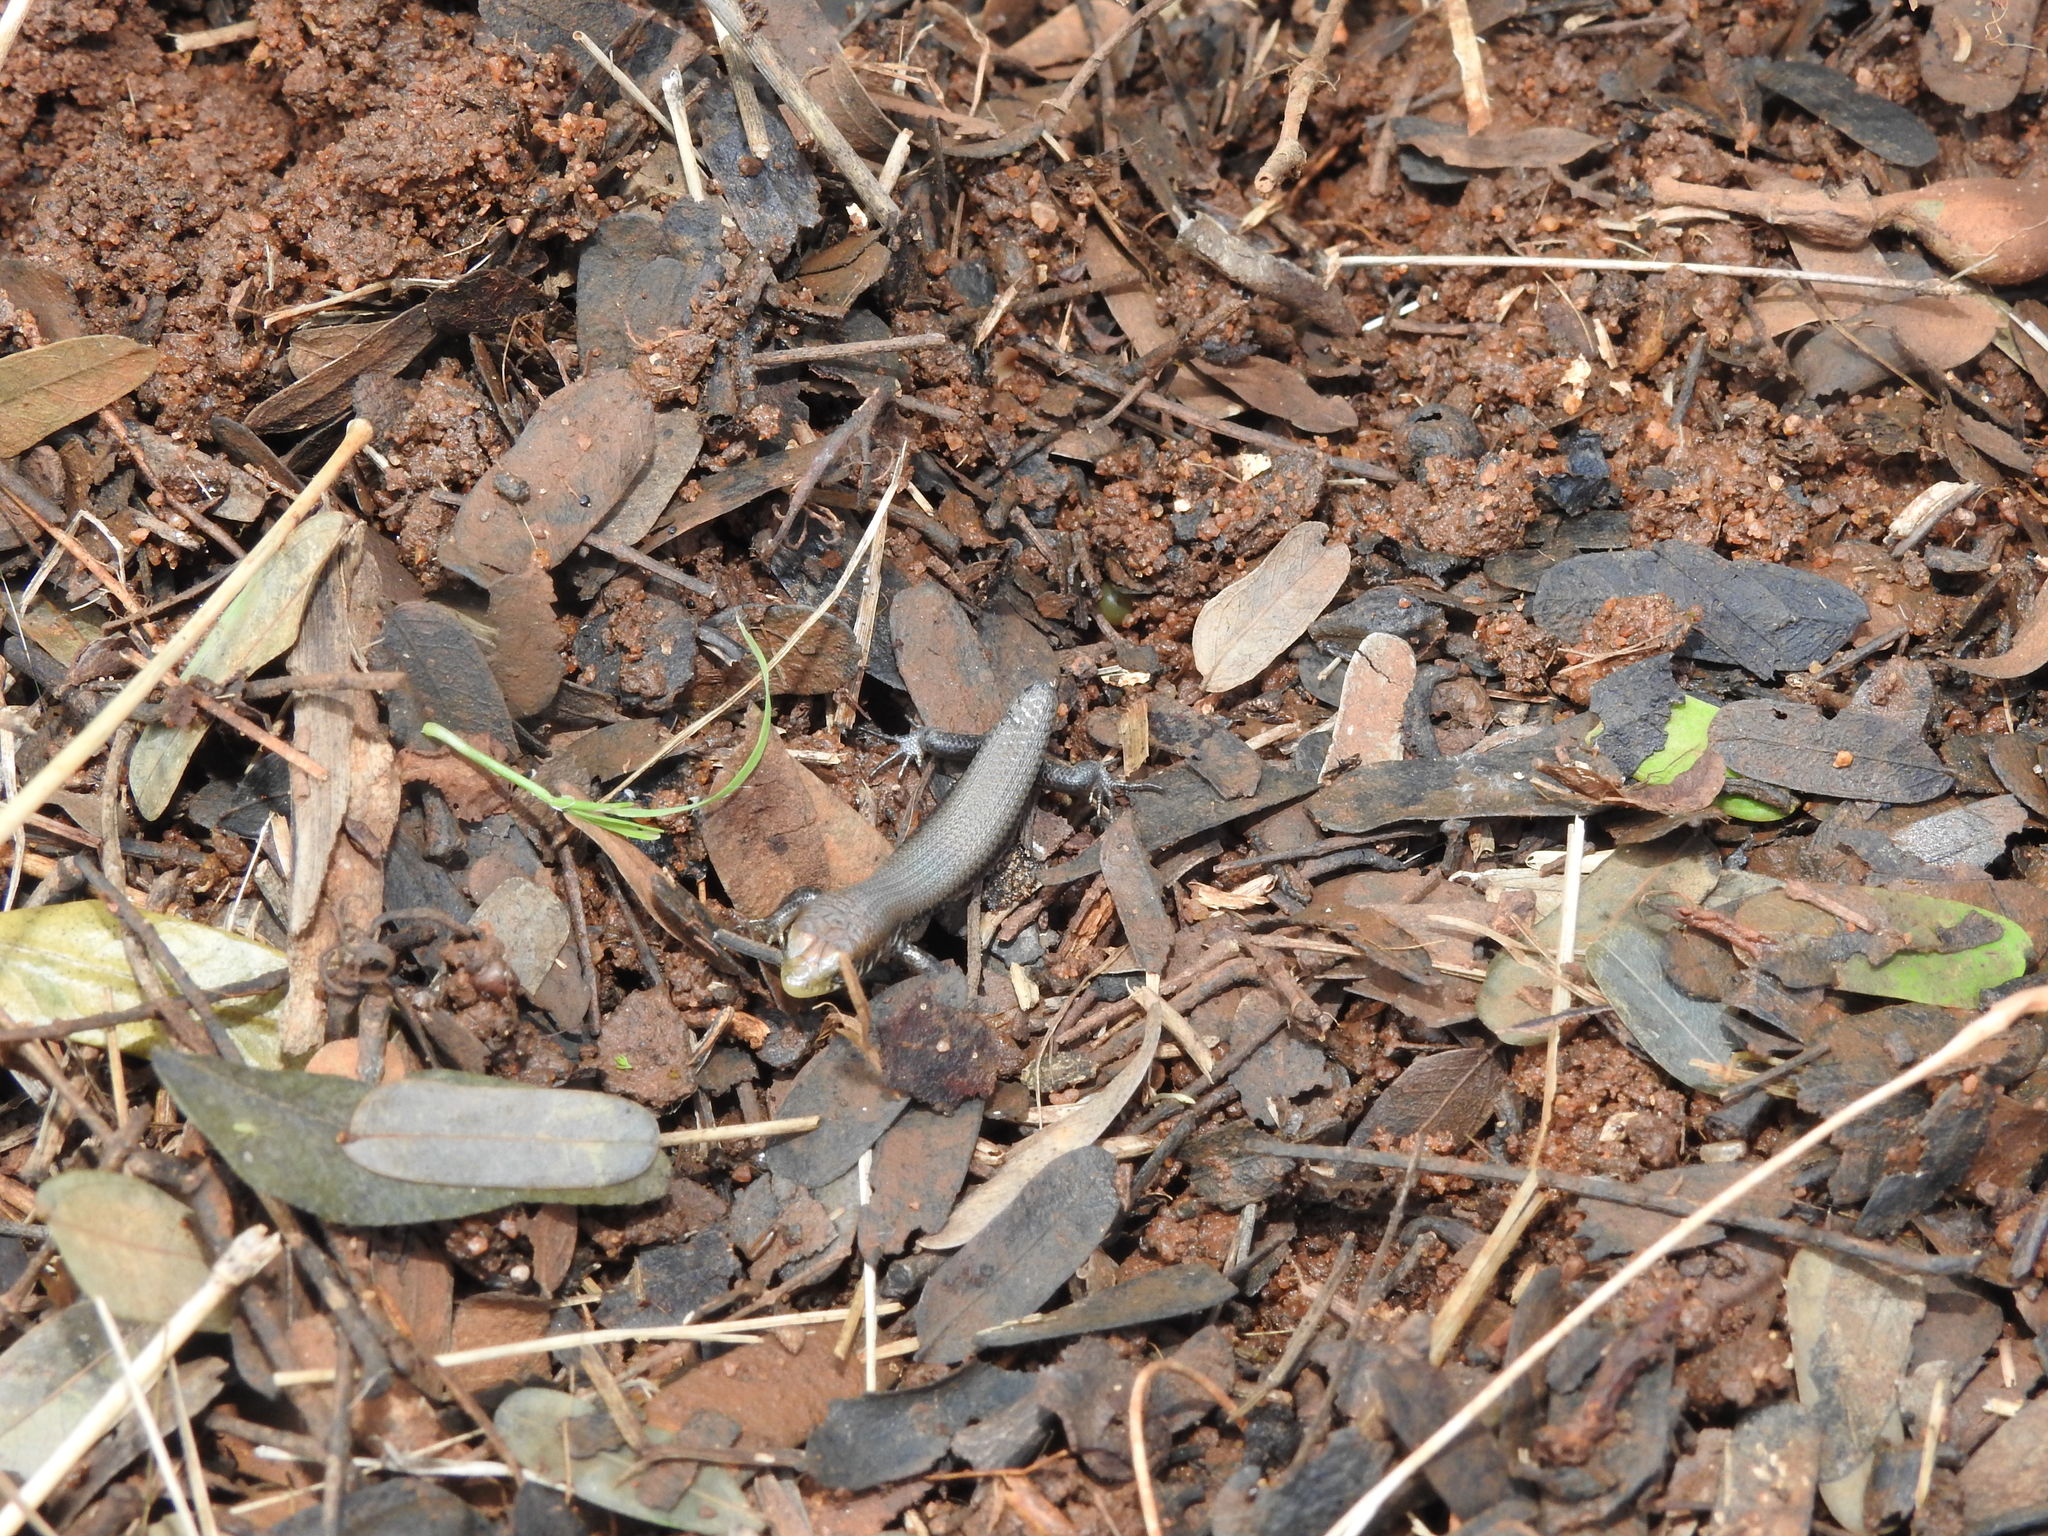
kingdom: Animalia
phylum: Chordata
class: Squamata
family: Scincidae
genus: Eutropis
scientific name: Eutropis macularia
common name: Bronze mabuya
